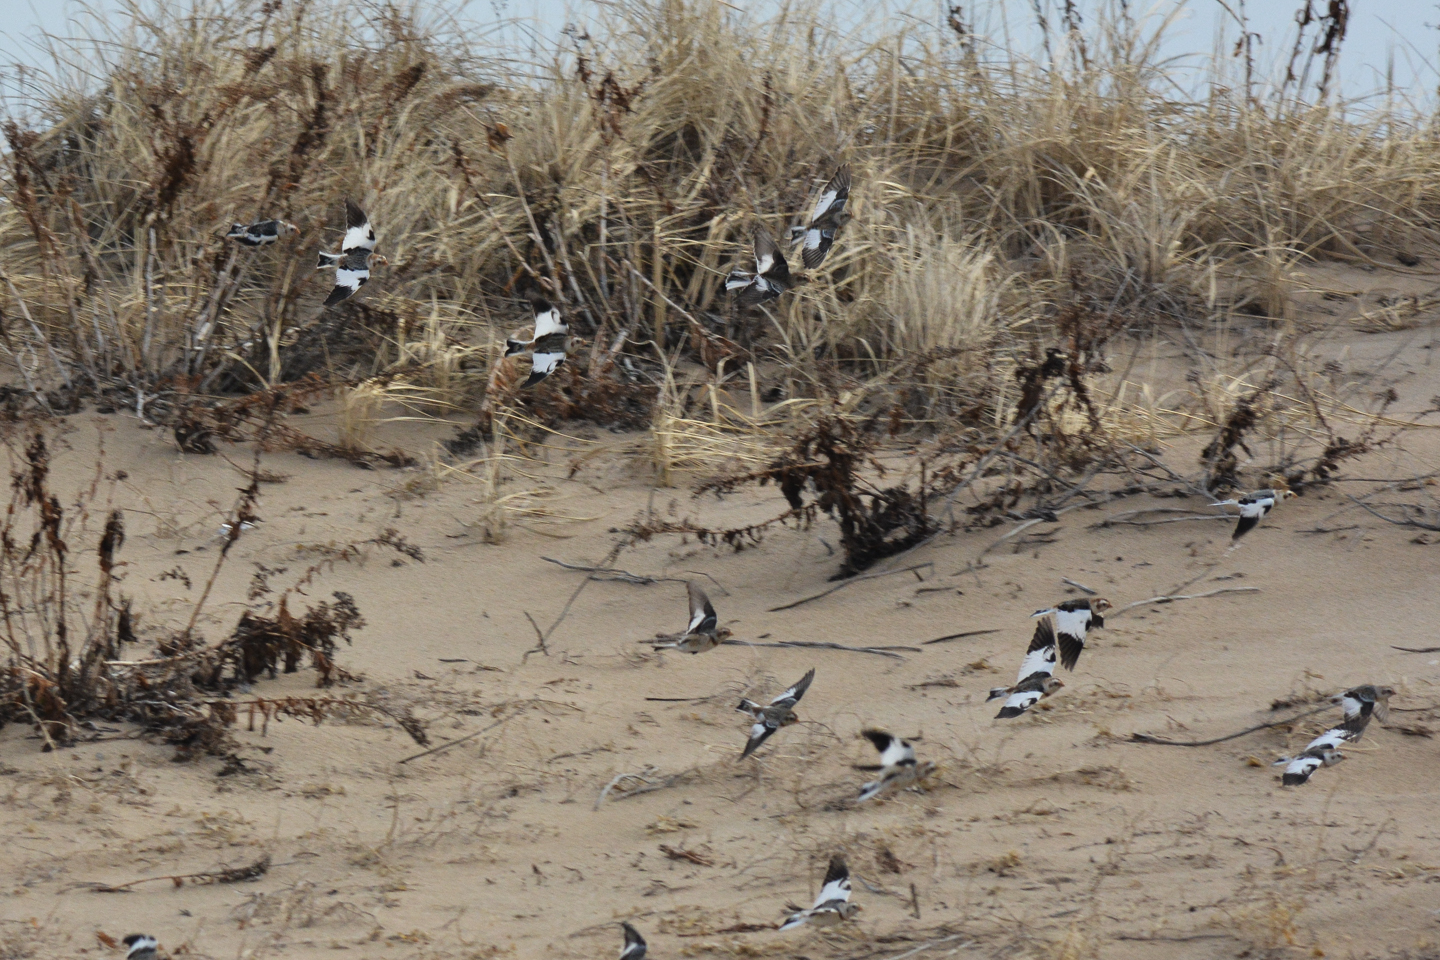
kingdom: Animalia
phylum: Chordata
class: Aves
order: Passeriformes
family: Calcariidae
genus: Plectrophenax
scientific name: Plectrophenax nivalis
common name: Snow bunting
